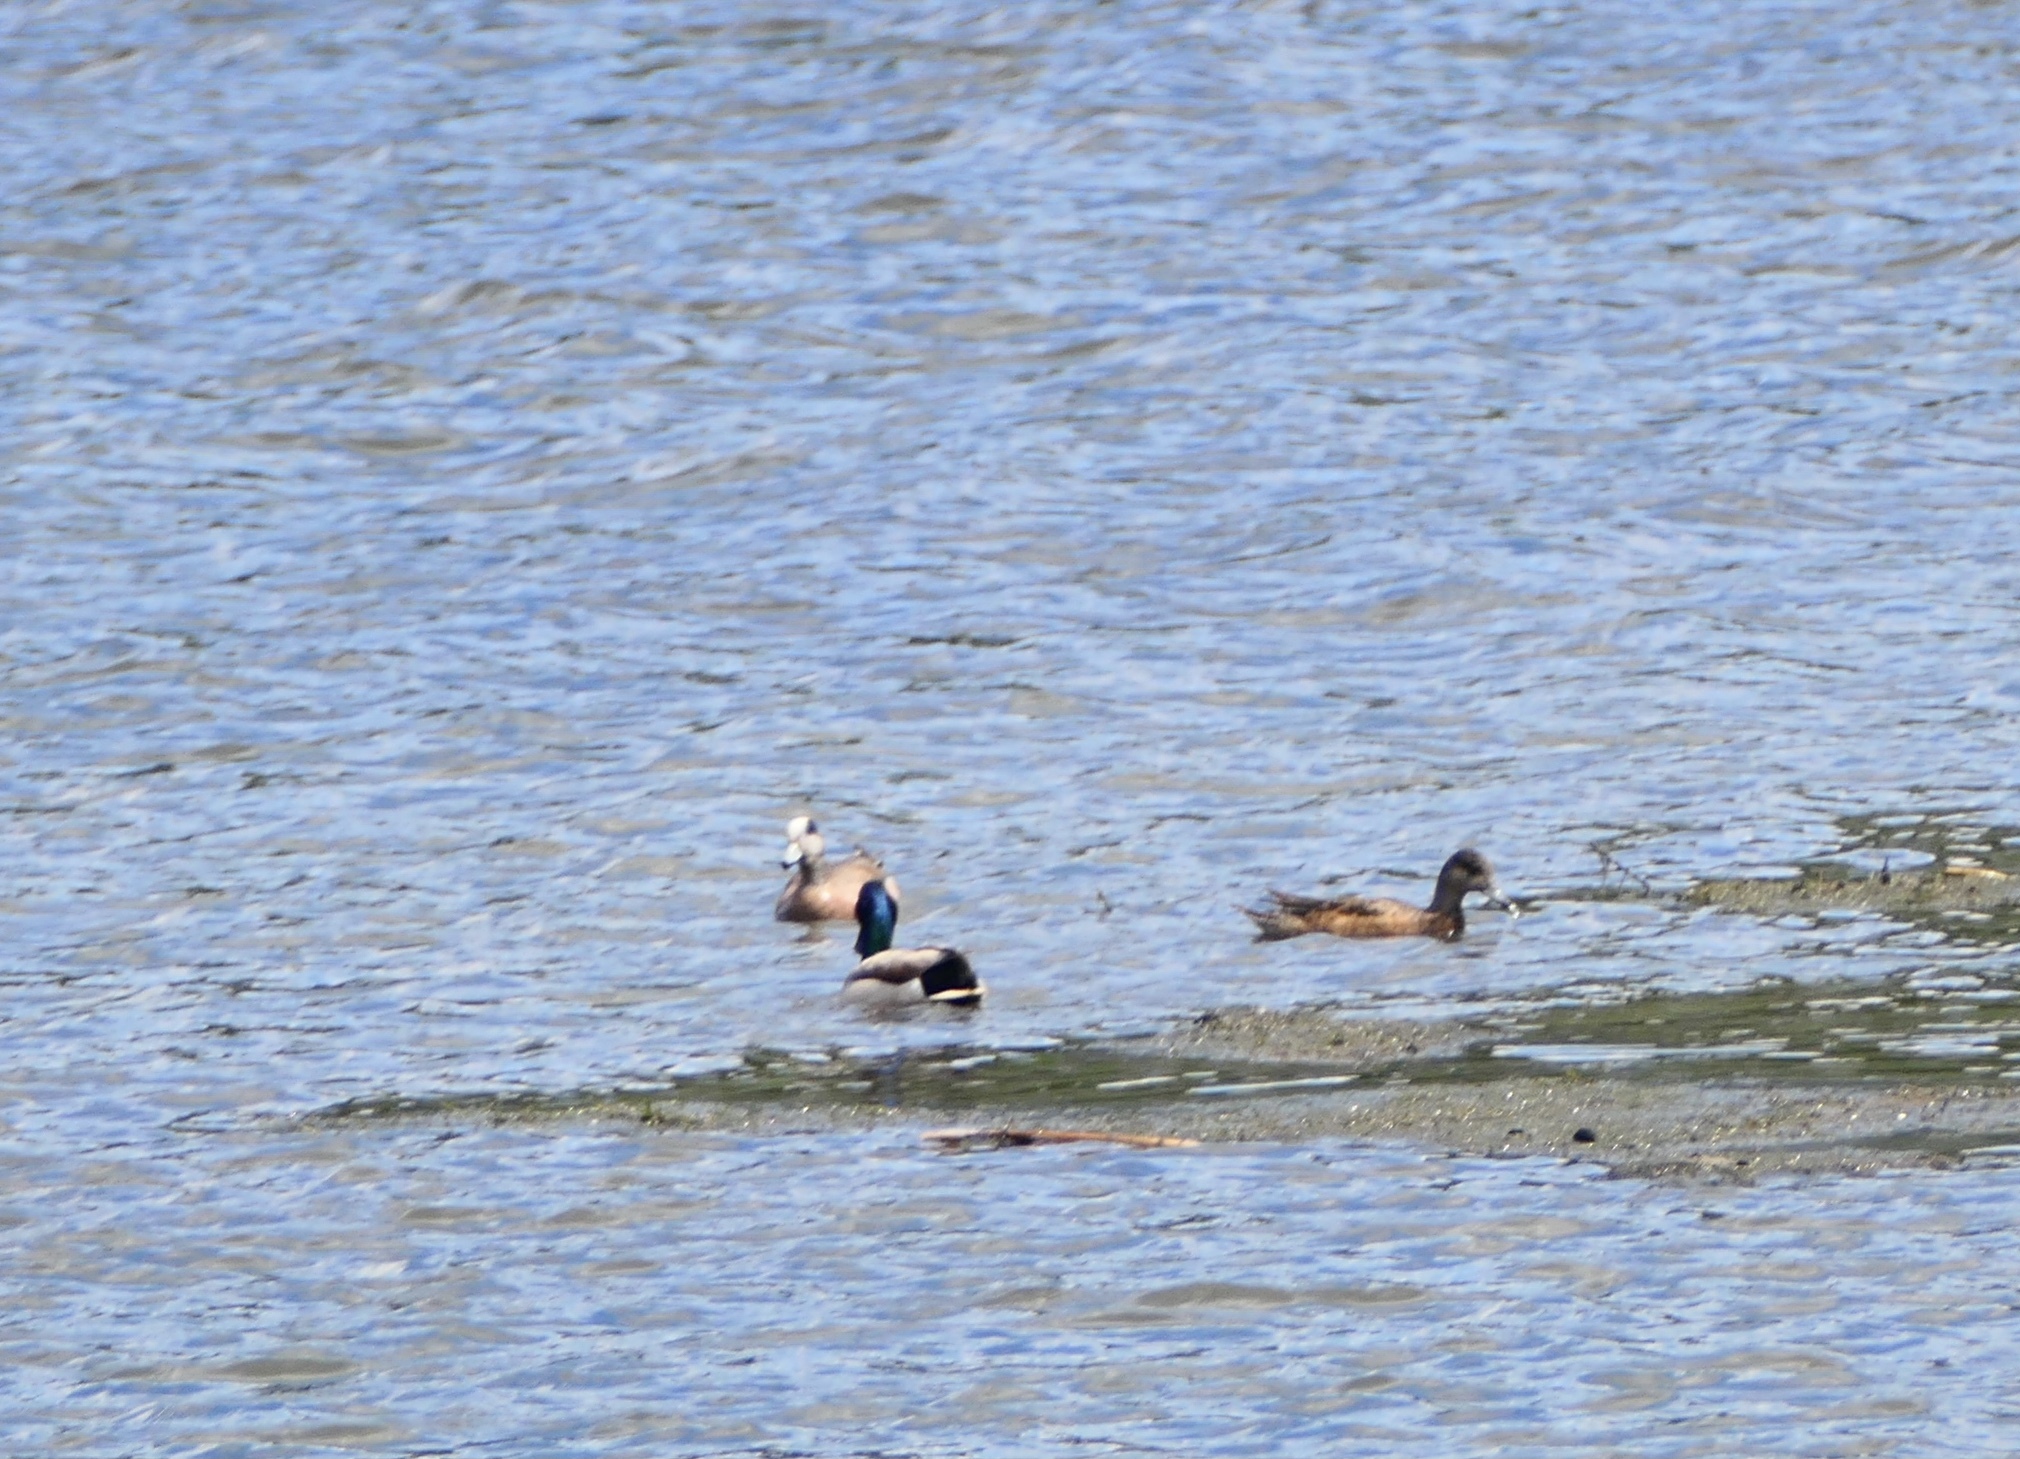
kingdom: Animalia
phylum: Chordata
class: Aves
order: Anseriformes
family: Anatidae
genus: Anas
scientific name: Anas platyrhynchos
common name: Mallard
